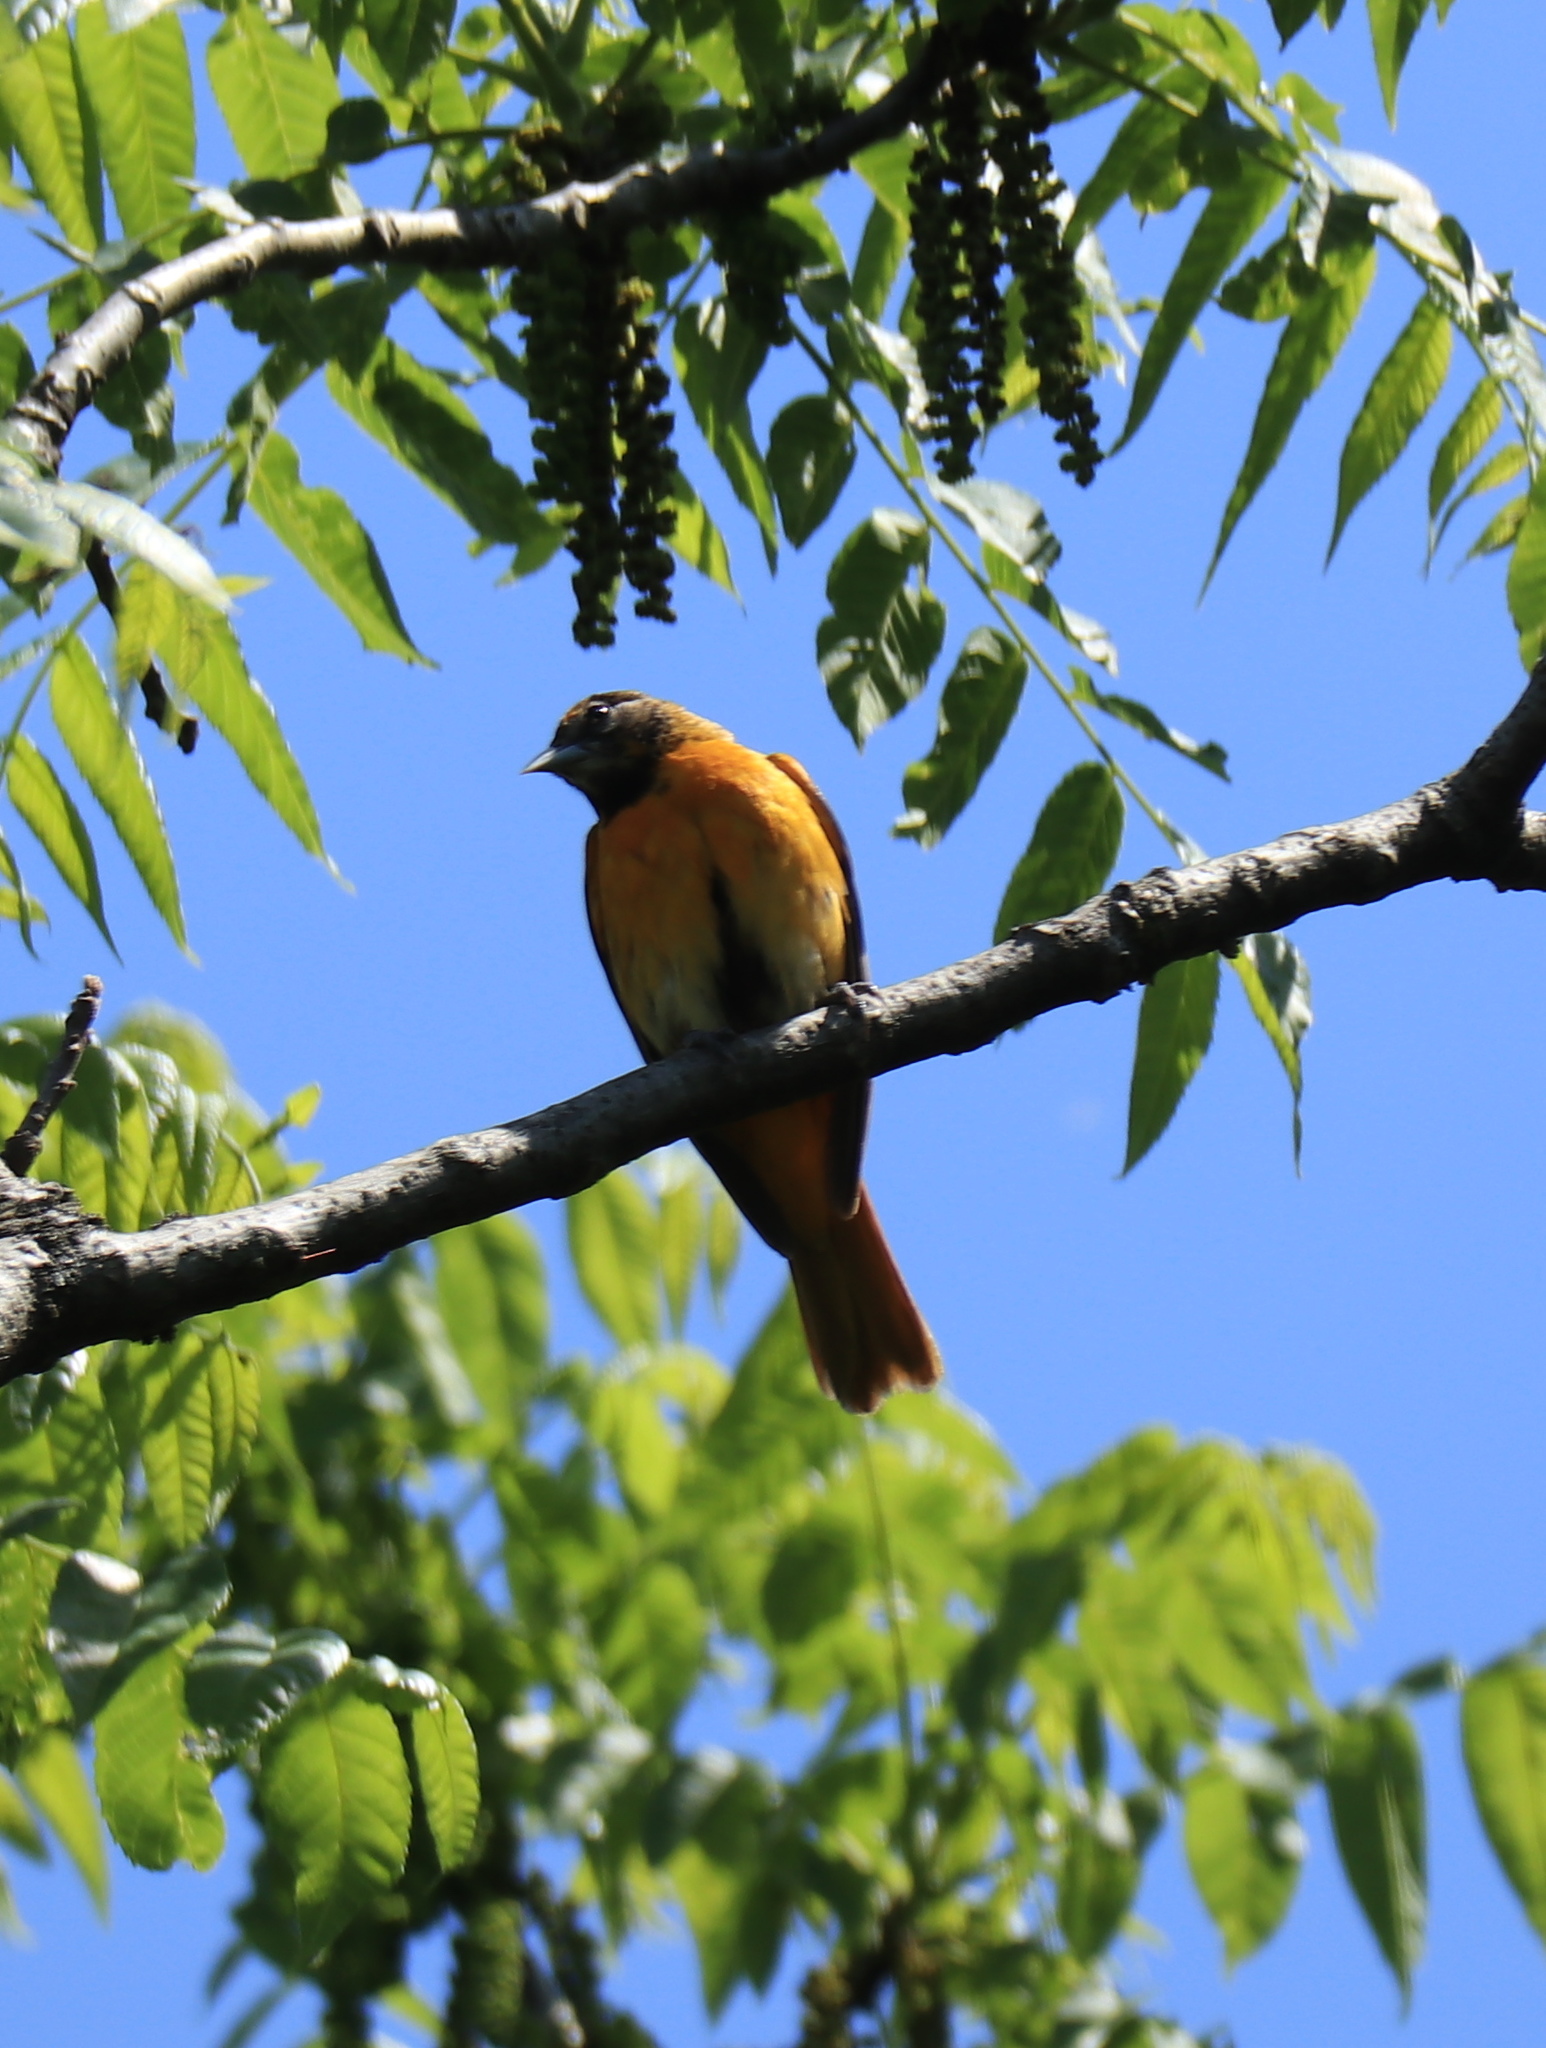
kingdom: Animalia
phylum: Chordata
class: Aves
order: Passeriformes
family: Icteridae
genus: Icterus
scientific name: Icterus galbula
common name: Baltimore oriole
